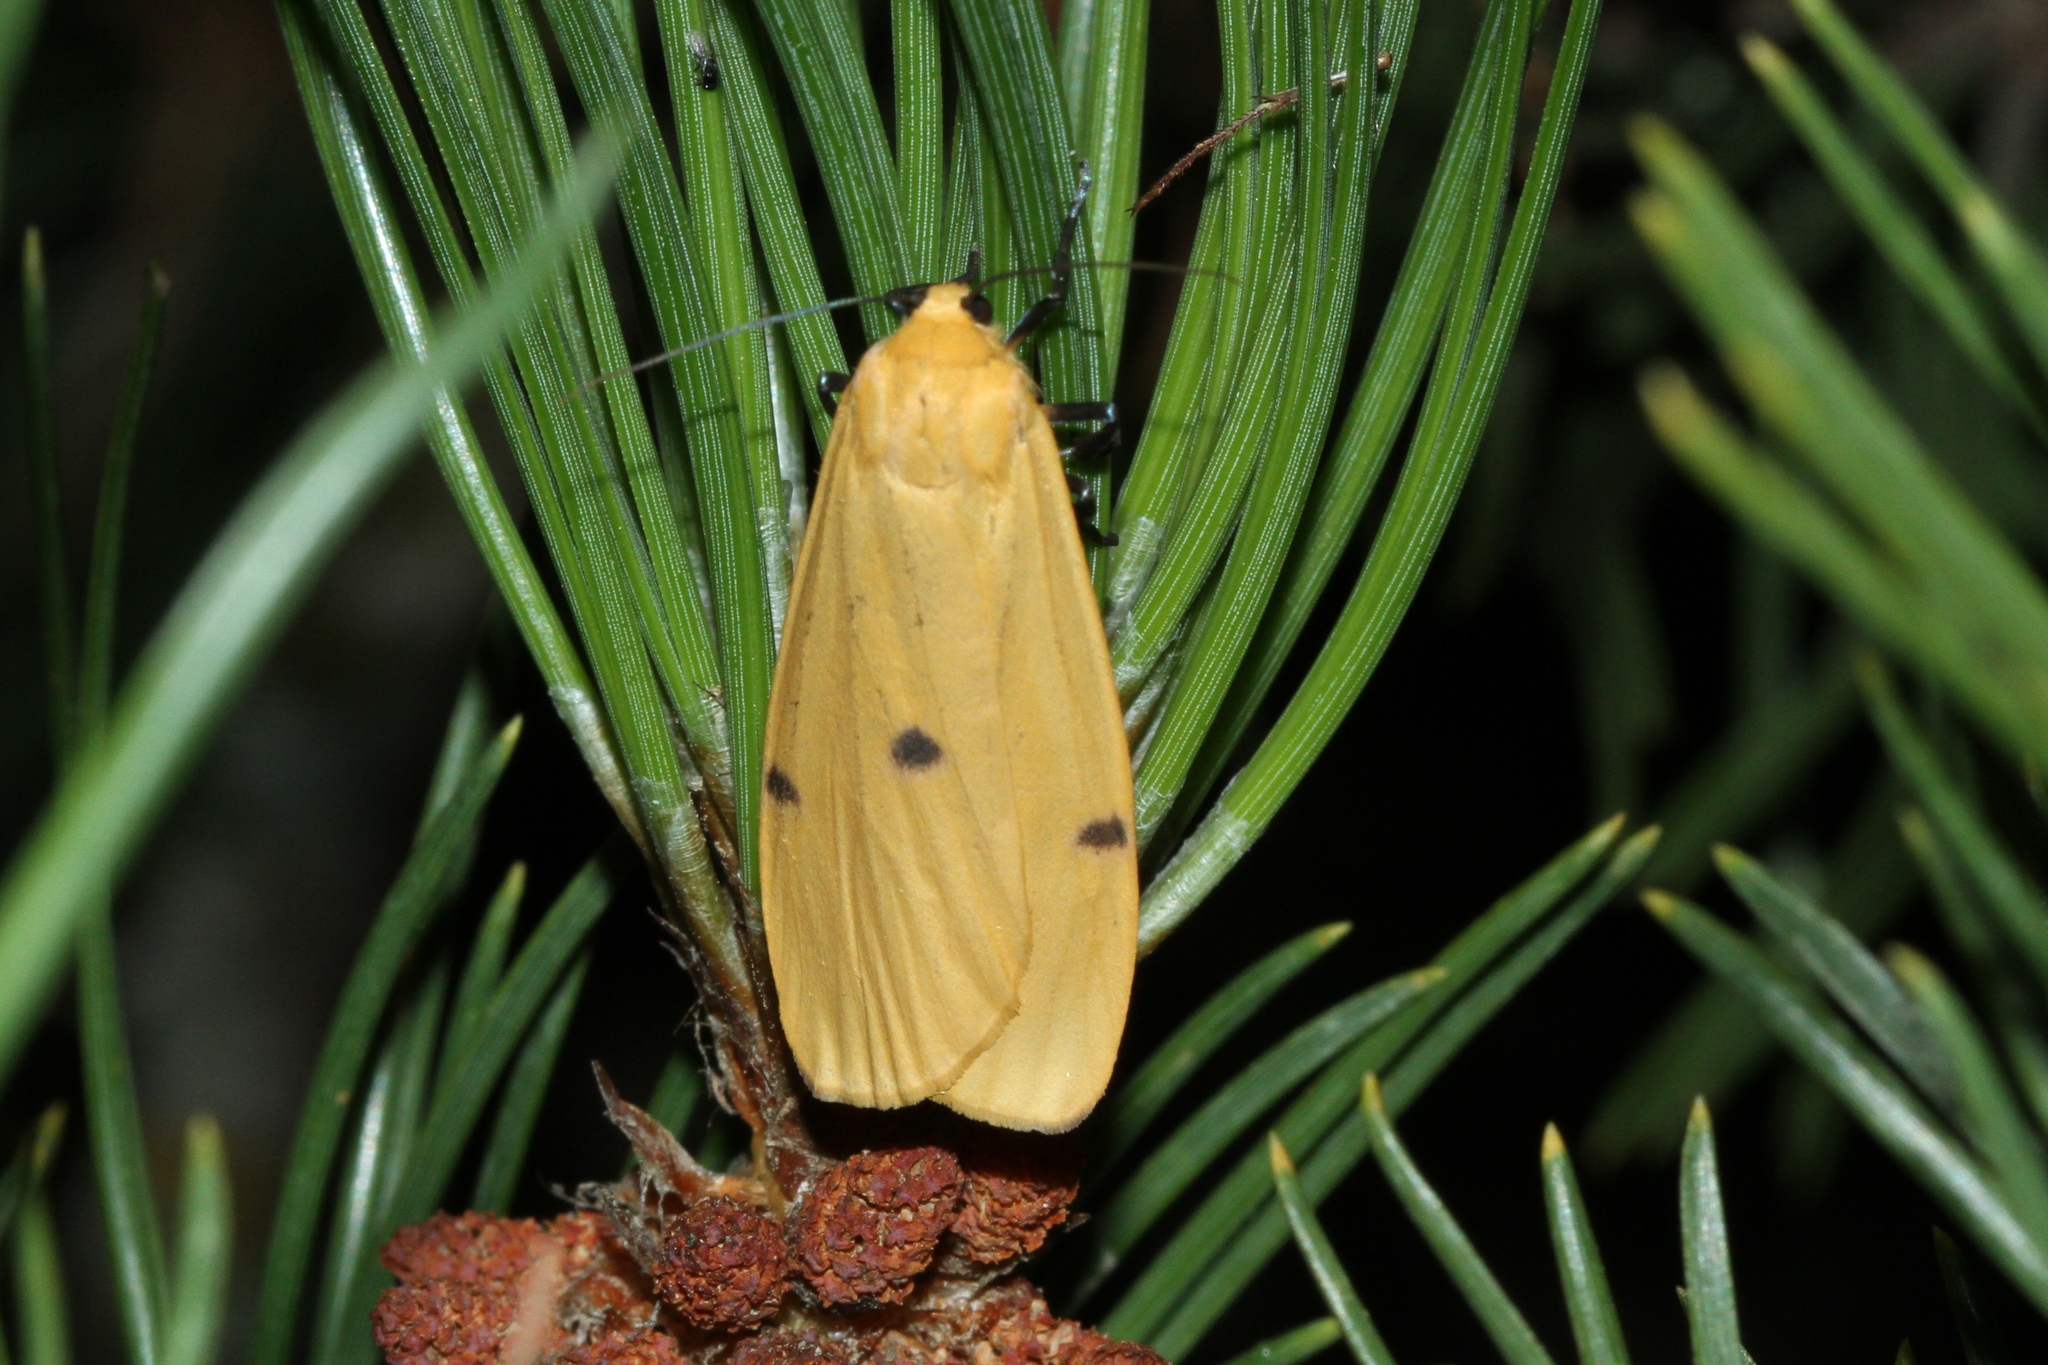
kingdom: Animalia
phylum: Arthropoda
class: Insecta
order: Lepidoptera
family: Erebidae
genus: Lithosia
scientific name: Lithosia quadra
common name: Four-spotted footman
